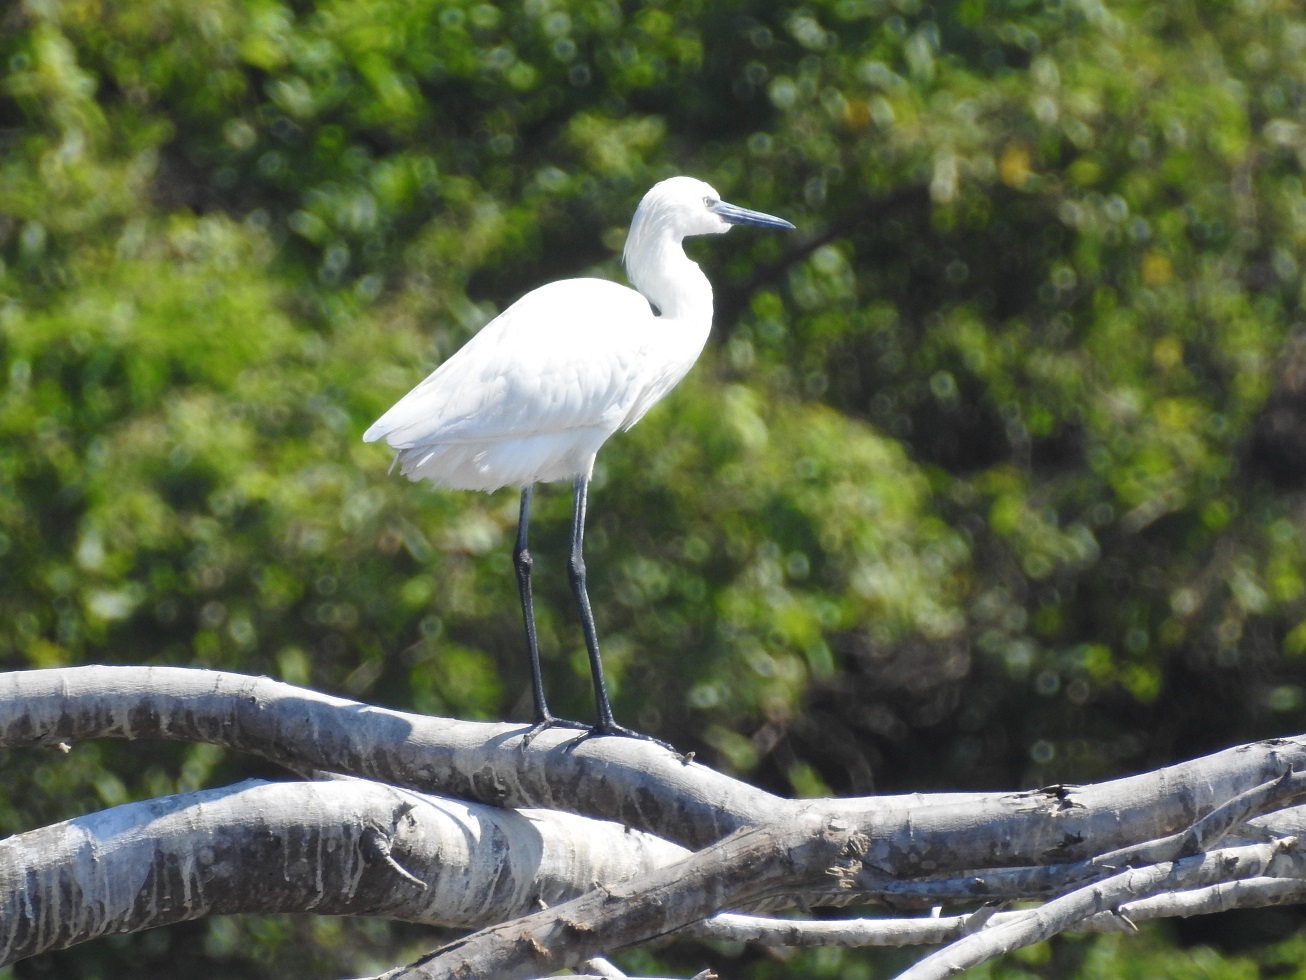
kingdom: Animalia
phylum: Chordata
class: Aves
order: Pelecaniformes
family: Ardeidae
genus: Egretta
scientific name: Egretta rufescens
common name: Reddish egret
